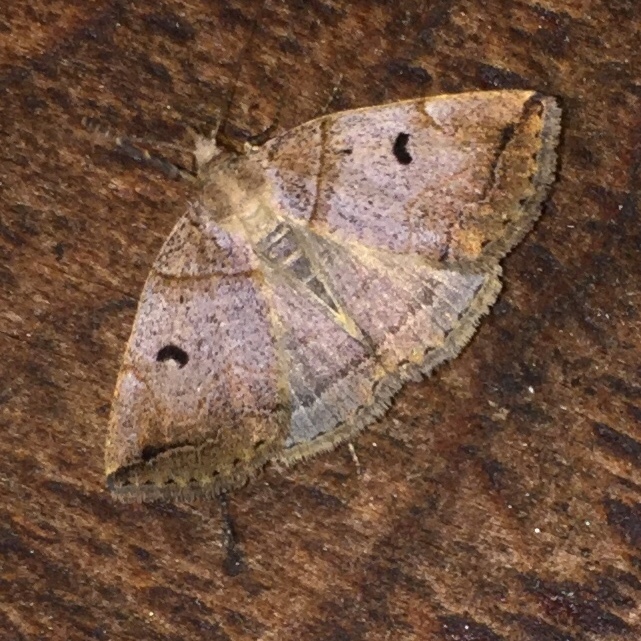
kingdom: Animalia
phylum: Arthropoda
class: Insecta
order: Lepidoptera
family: Erebidae
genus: Zanclognatha
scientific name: Zanclognatha laevigata
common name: Variable fan-foot
